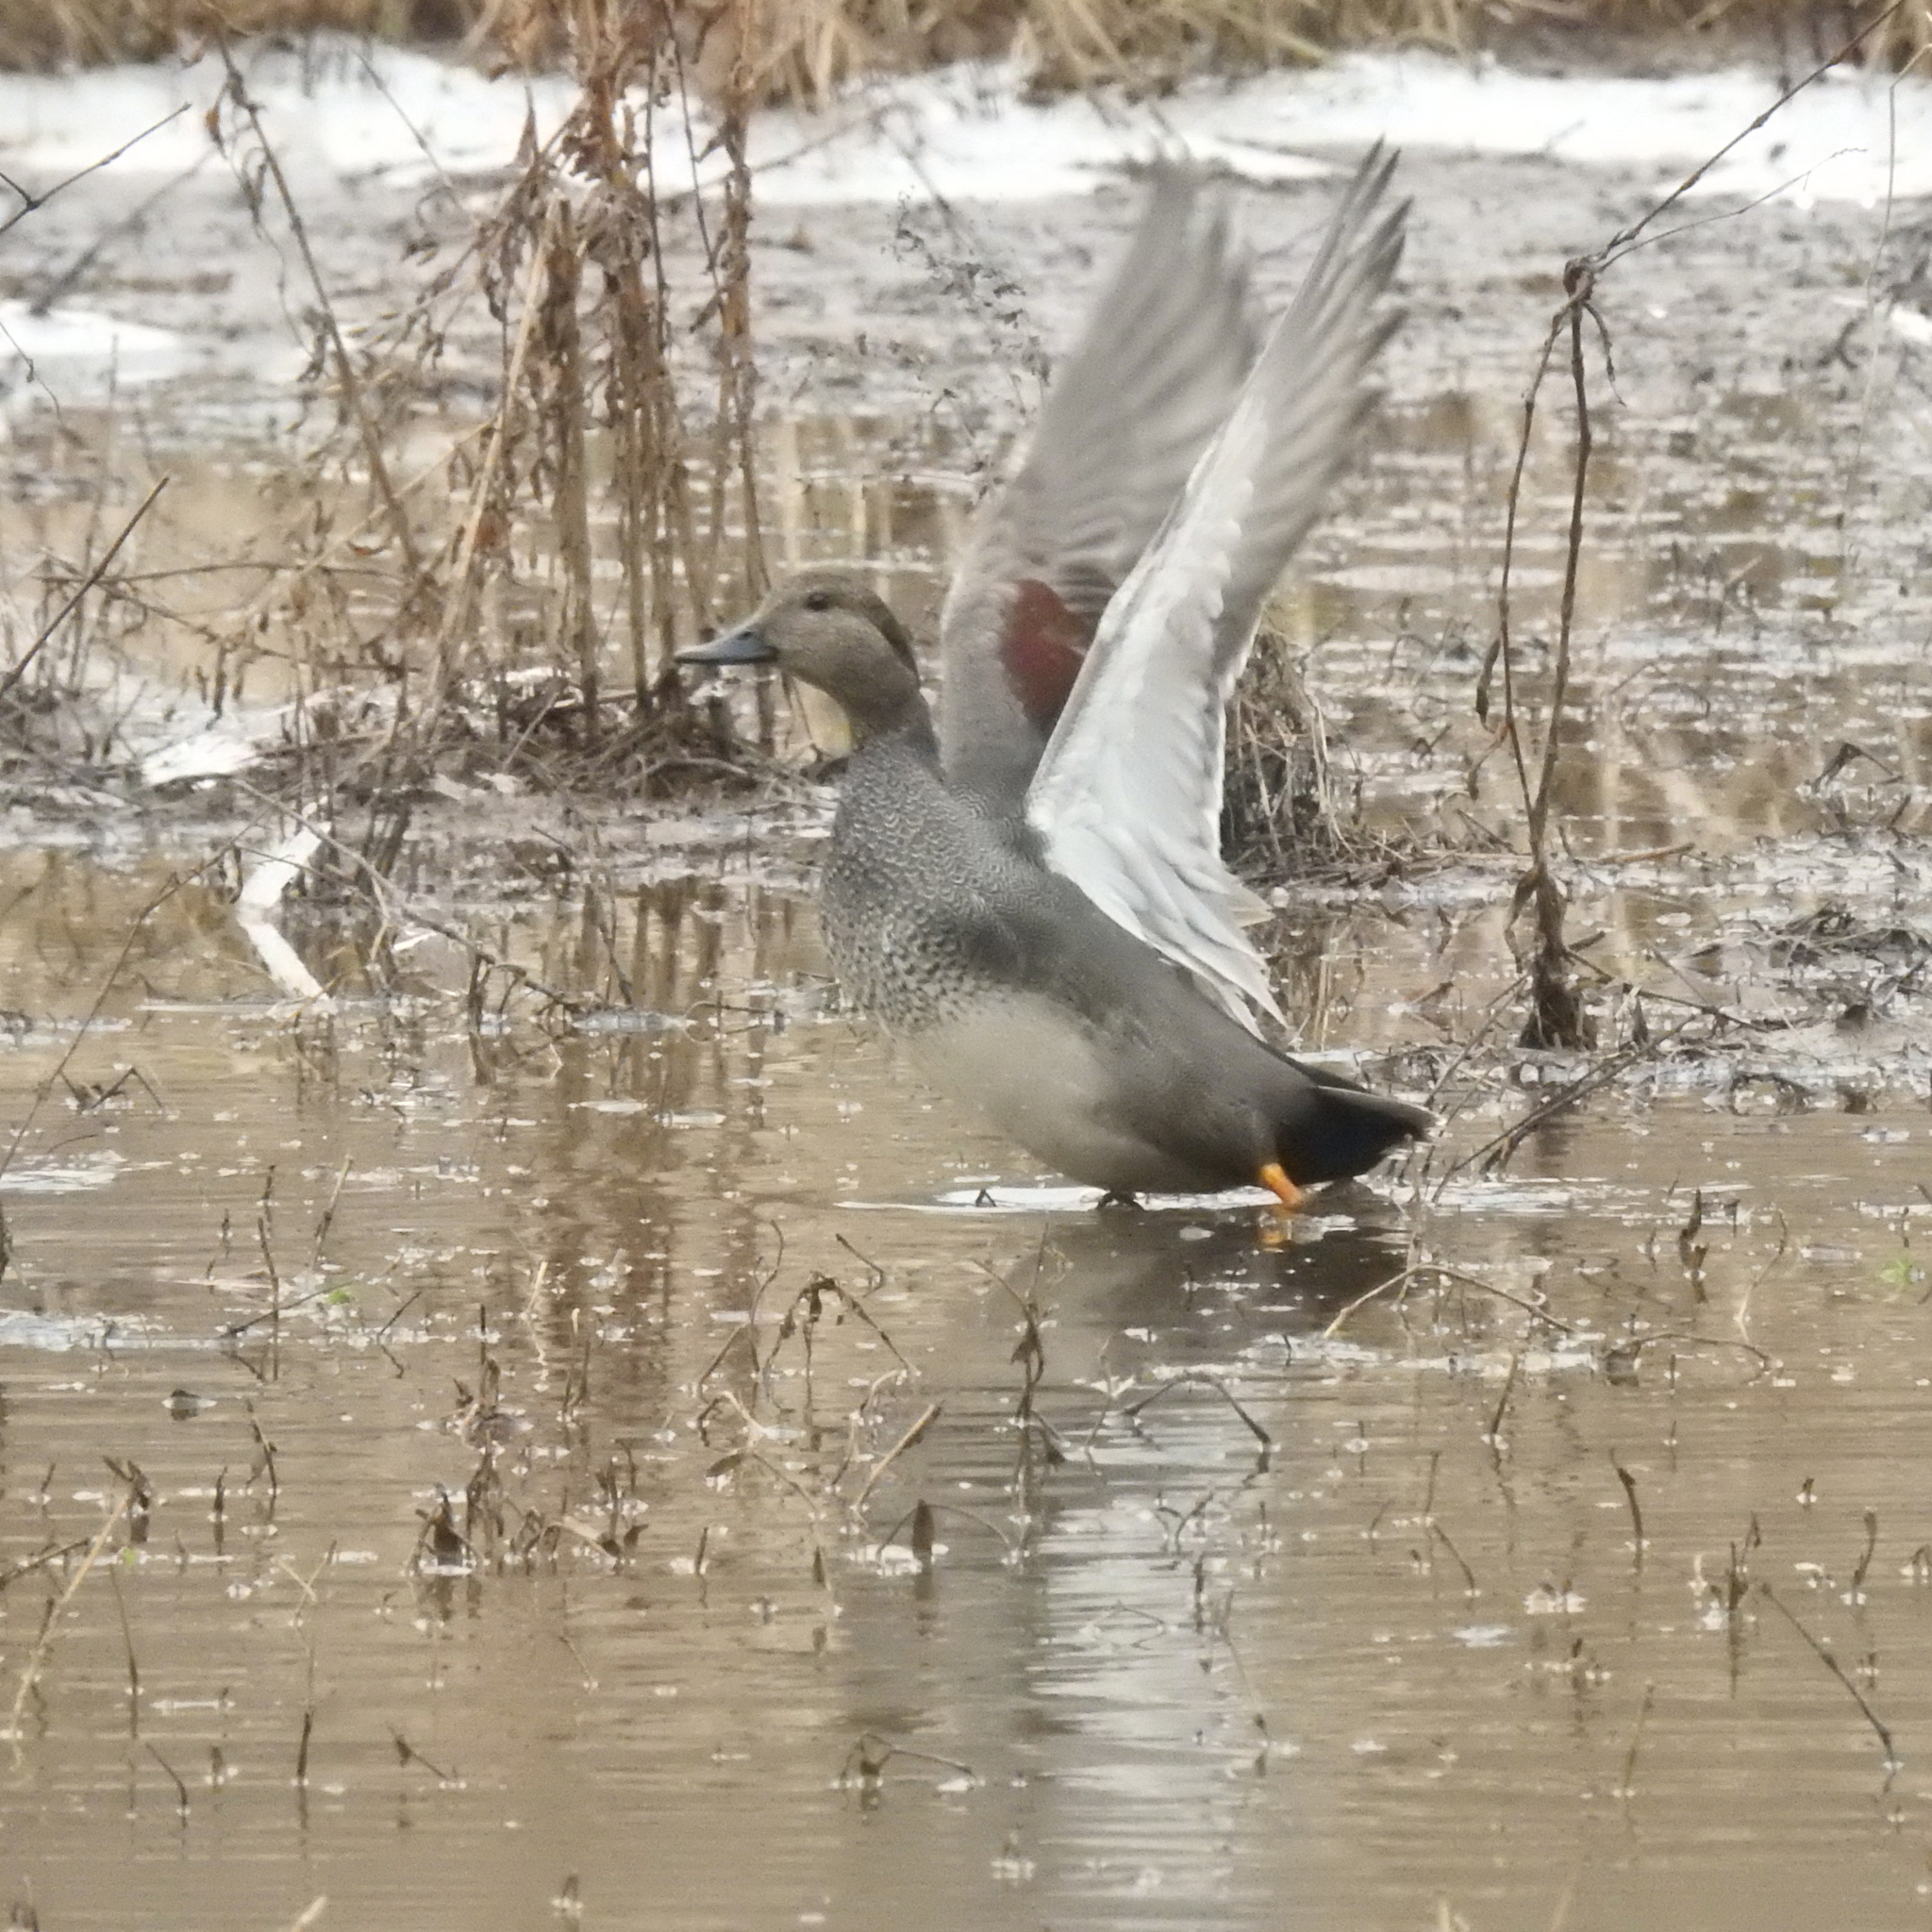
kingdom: Animalia
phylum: Chordata
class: Aves
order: Anseriformes
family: Anatidae
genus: Mareca
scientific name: Mareca strepera
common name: Gadwall
